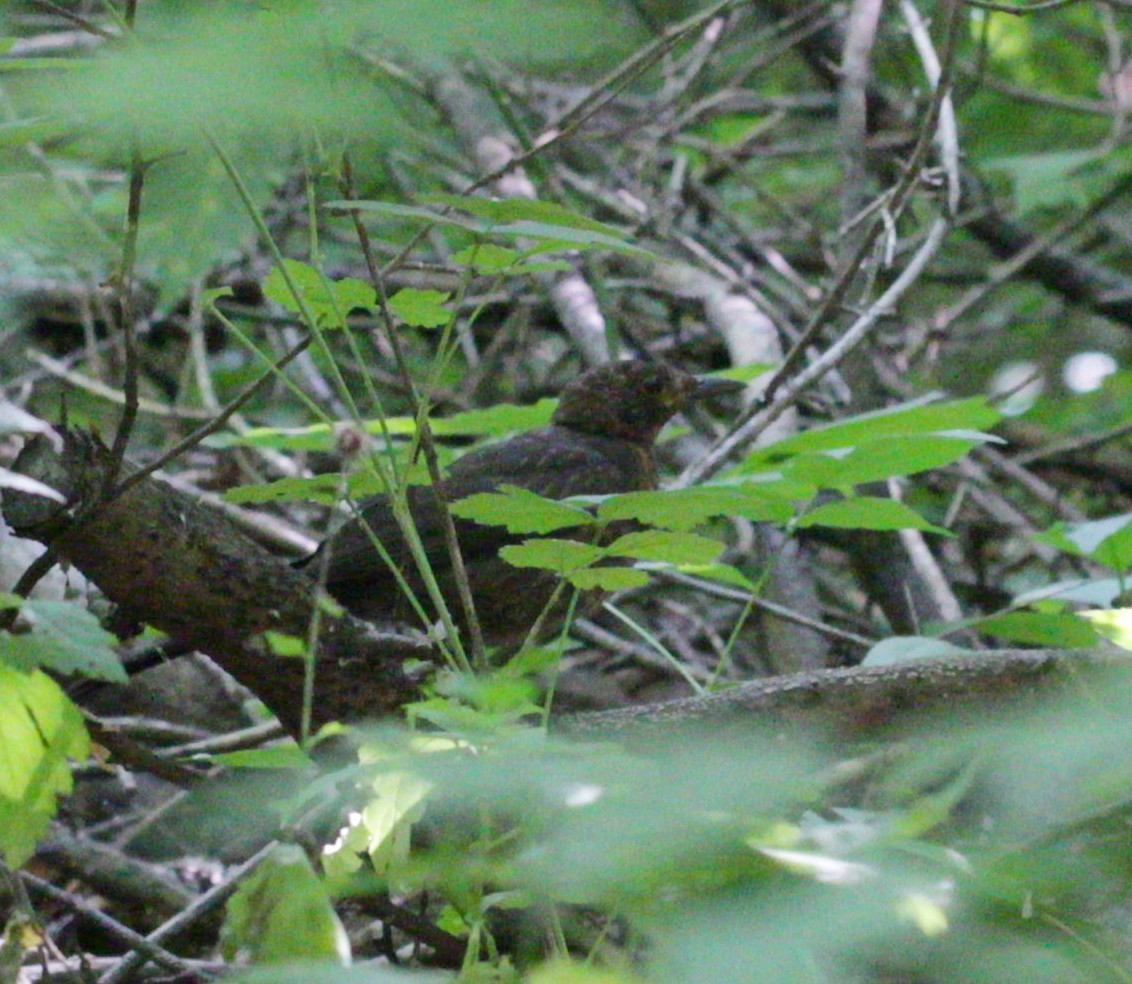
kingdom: Animalia
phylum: Chordata
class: Aves
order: Passeriformes
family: Turdidae
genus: Turdus
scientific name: Turdus merula
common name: Common blackbird
